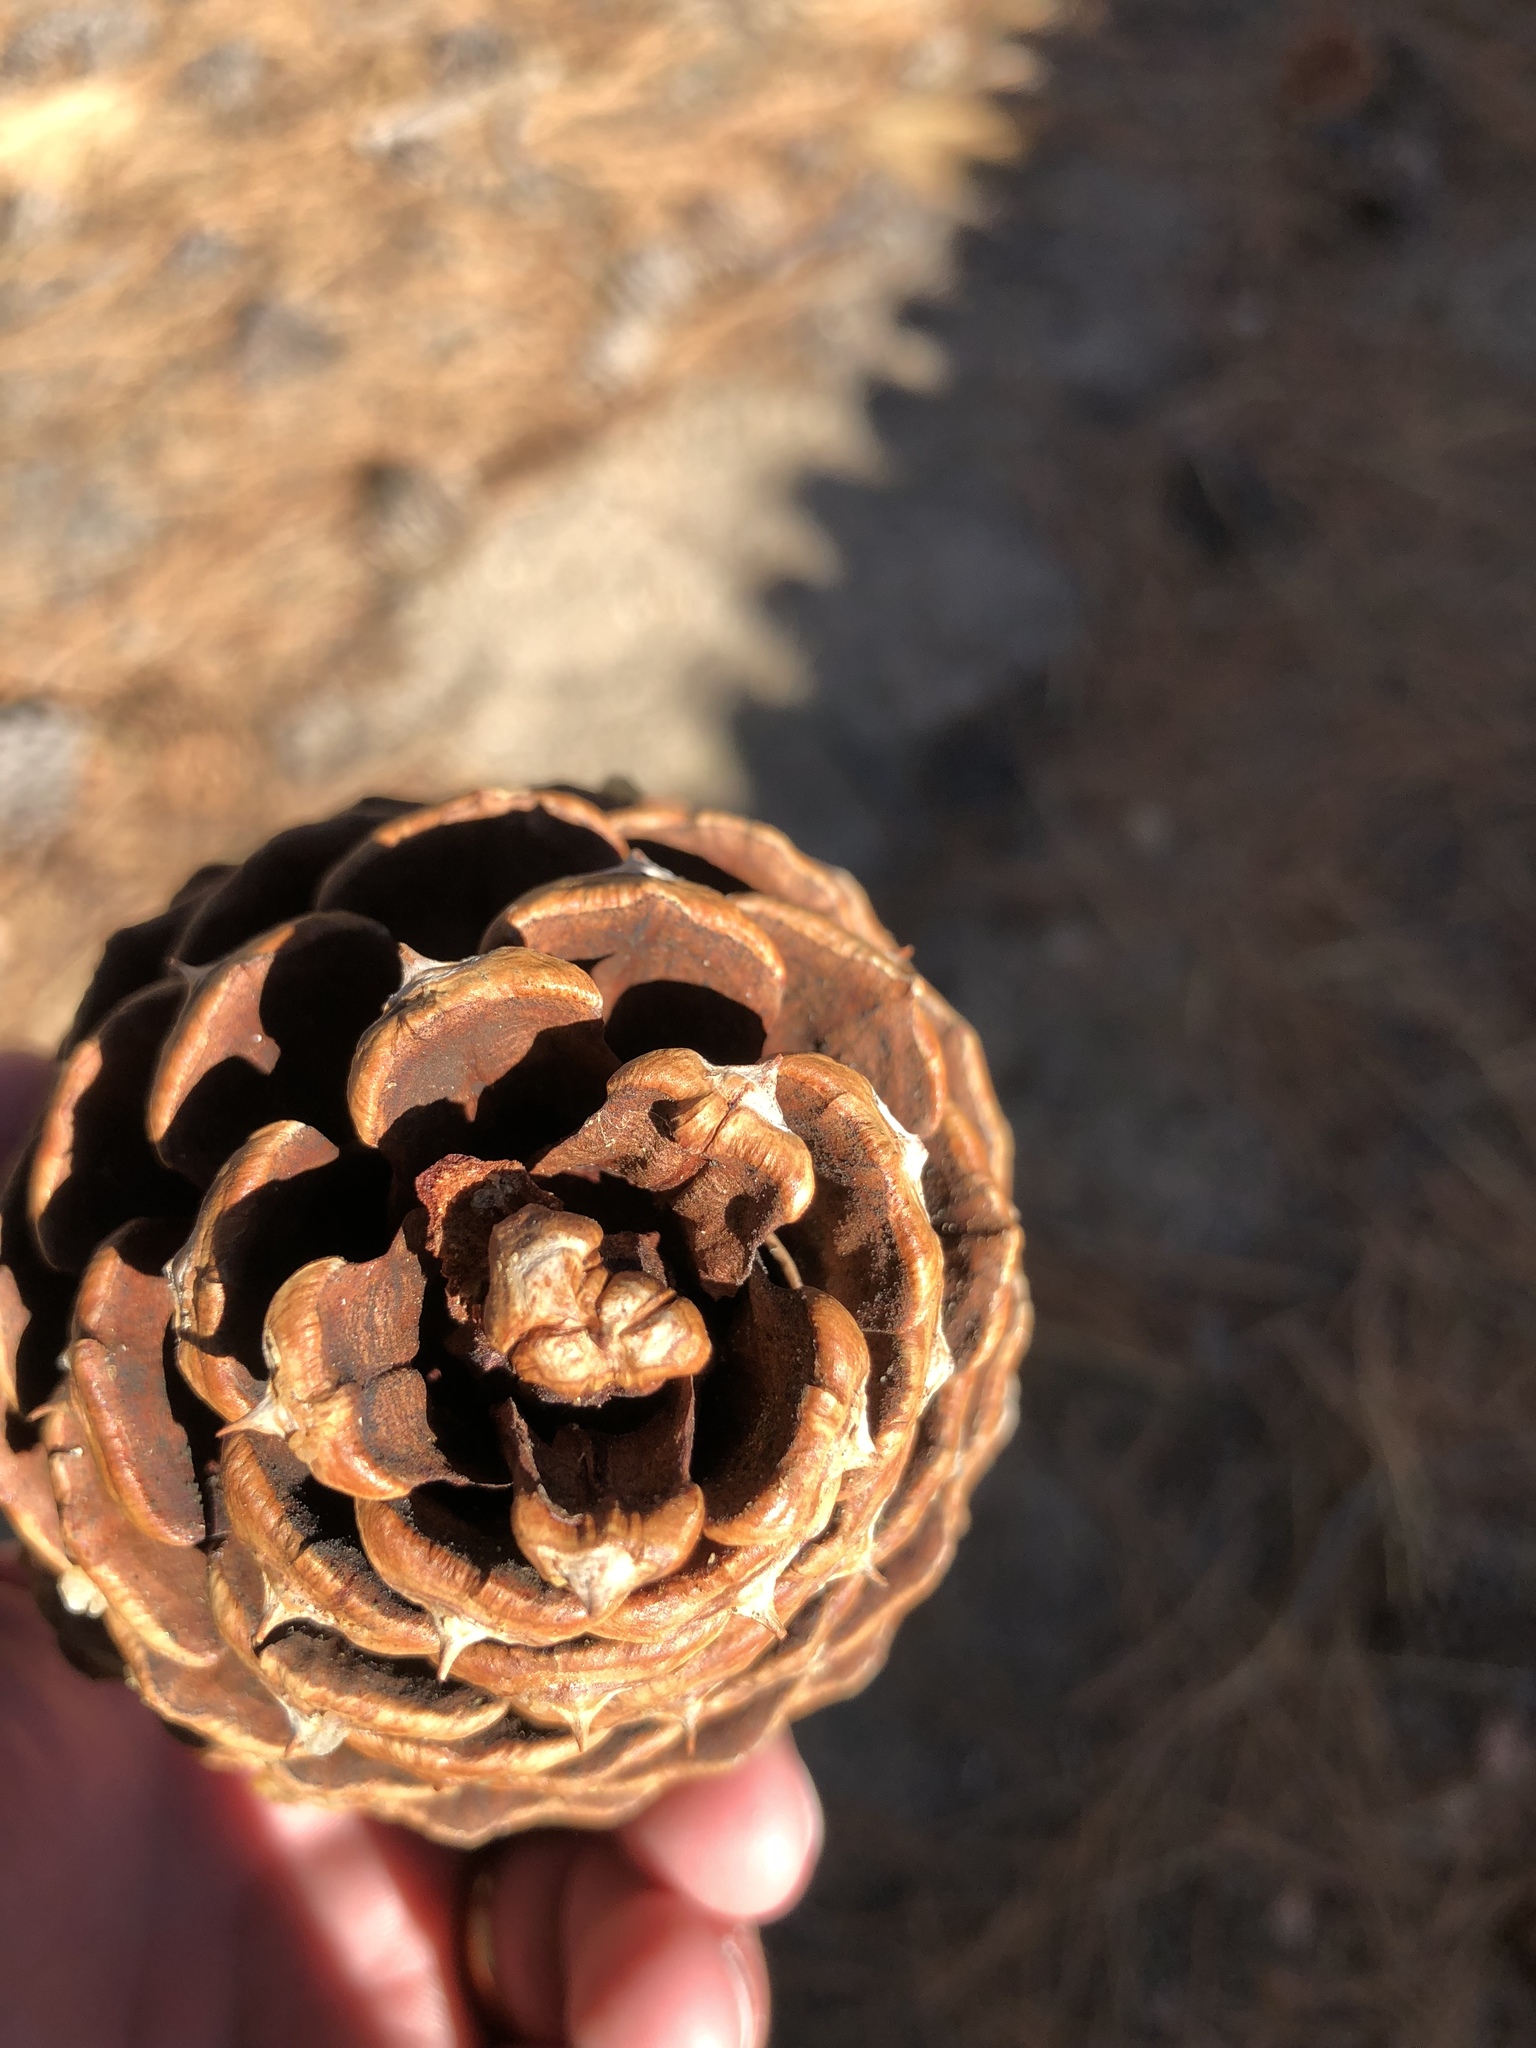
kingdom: Plantae
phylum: Tracheophyta
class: Pinopsida
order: Pinales
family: Pinaceae
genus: Pinus
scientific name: Pinus jeffreyi
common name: Jeffrey pine
